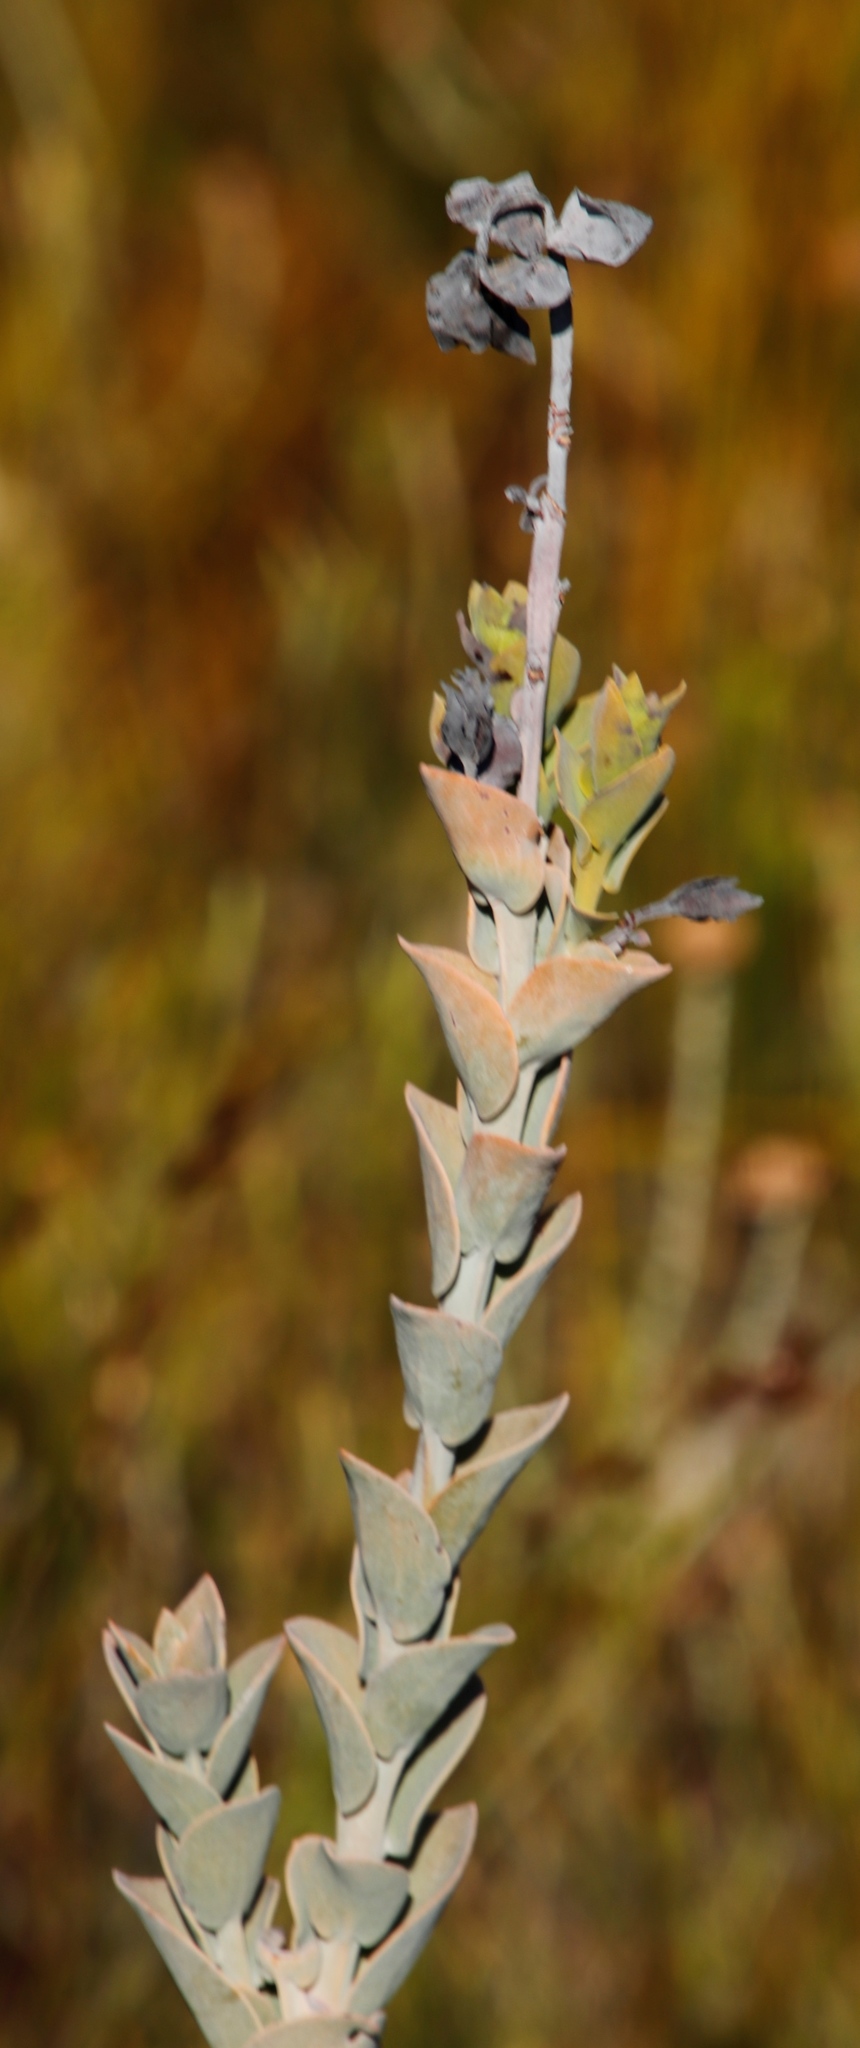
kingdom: Plantae
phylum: Tracheophyta
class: Magnoliopsida
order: Santalales
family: Thesiaceae
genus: Thesium
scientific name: Thesium euphorbioides
